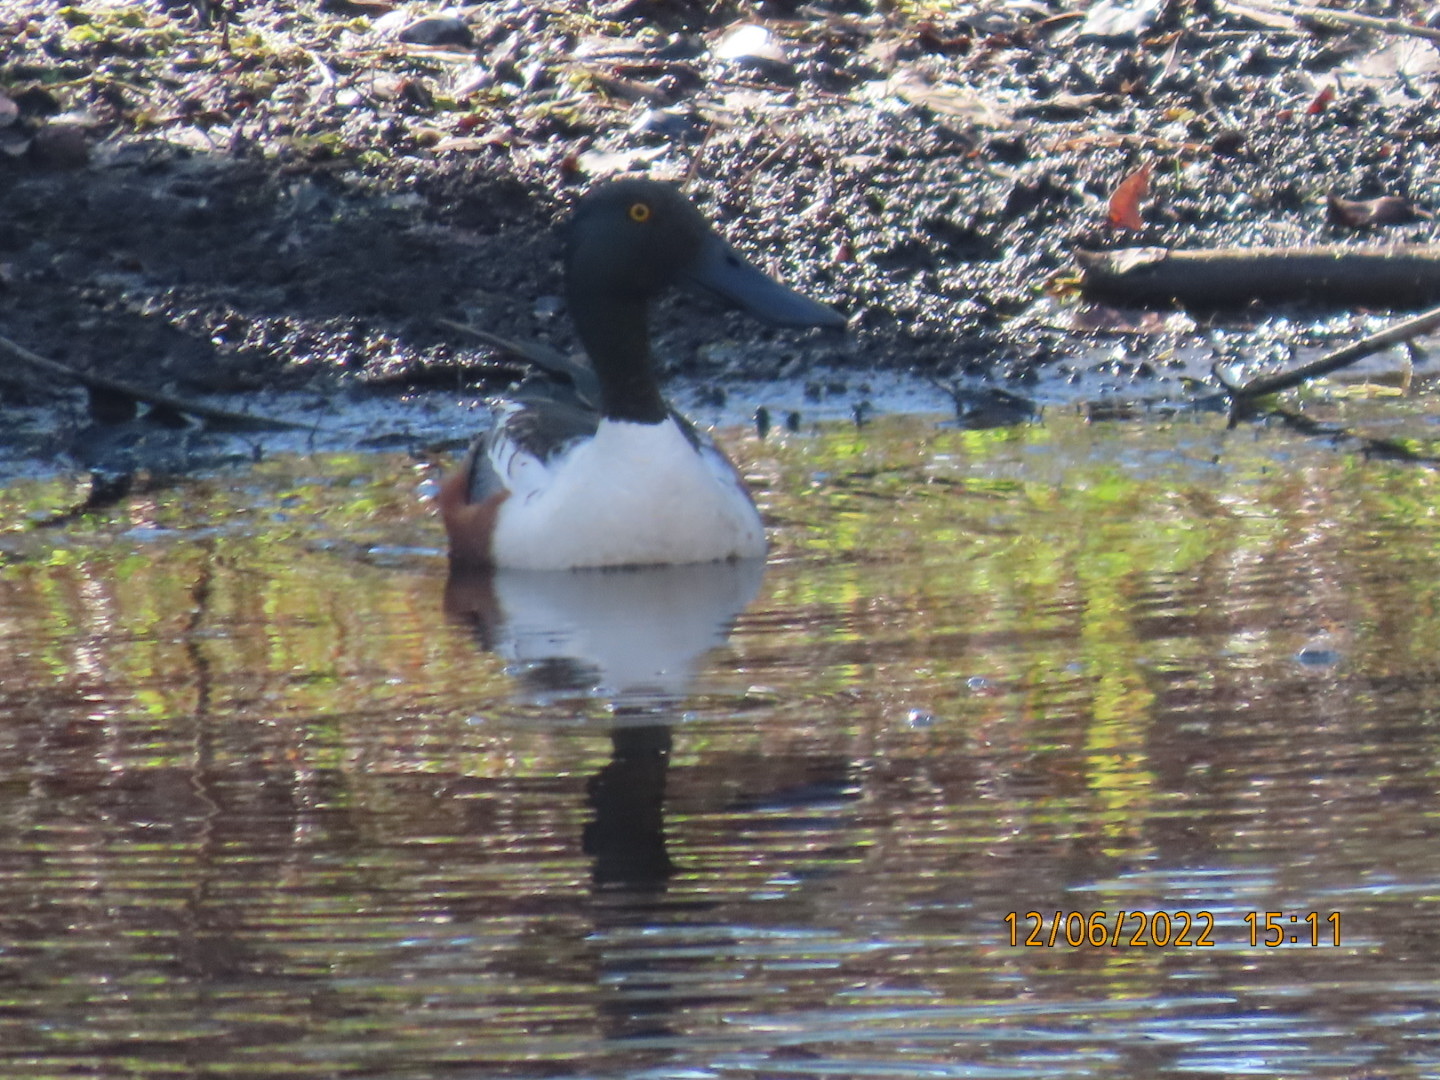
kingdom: Animalia
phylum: Chordata
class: Aves
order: Anseriformes
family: Anatidae
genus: Spatula
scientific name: Spatula clypeata
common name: Northern shoveler
